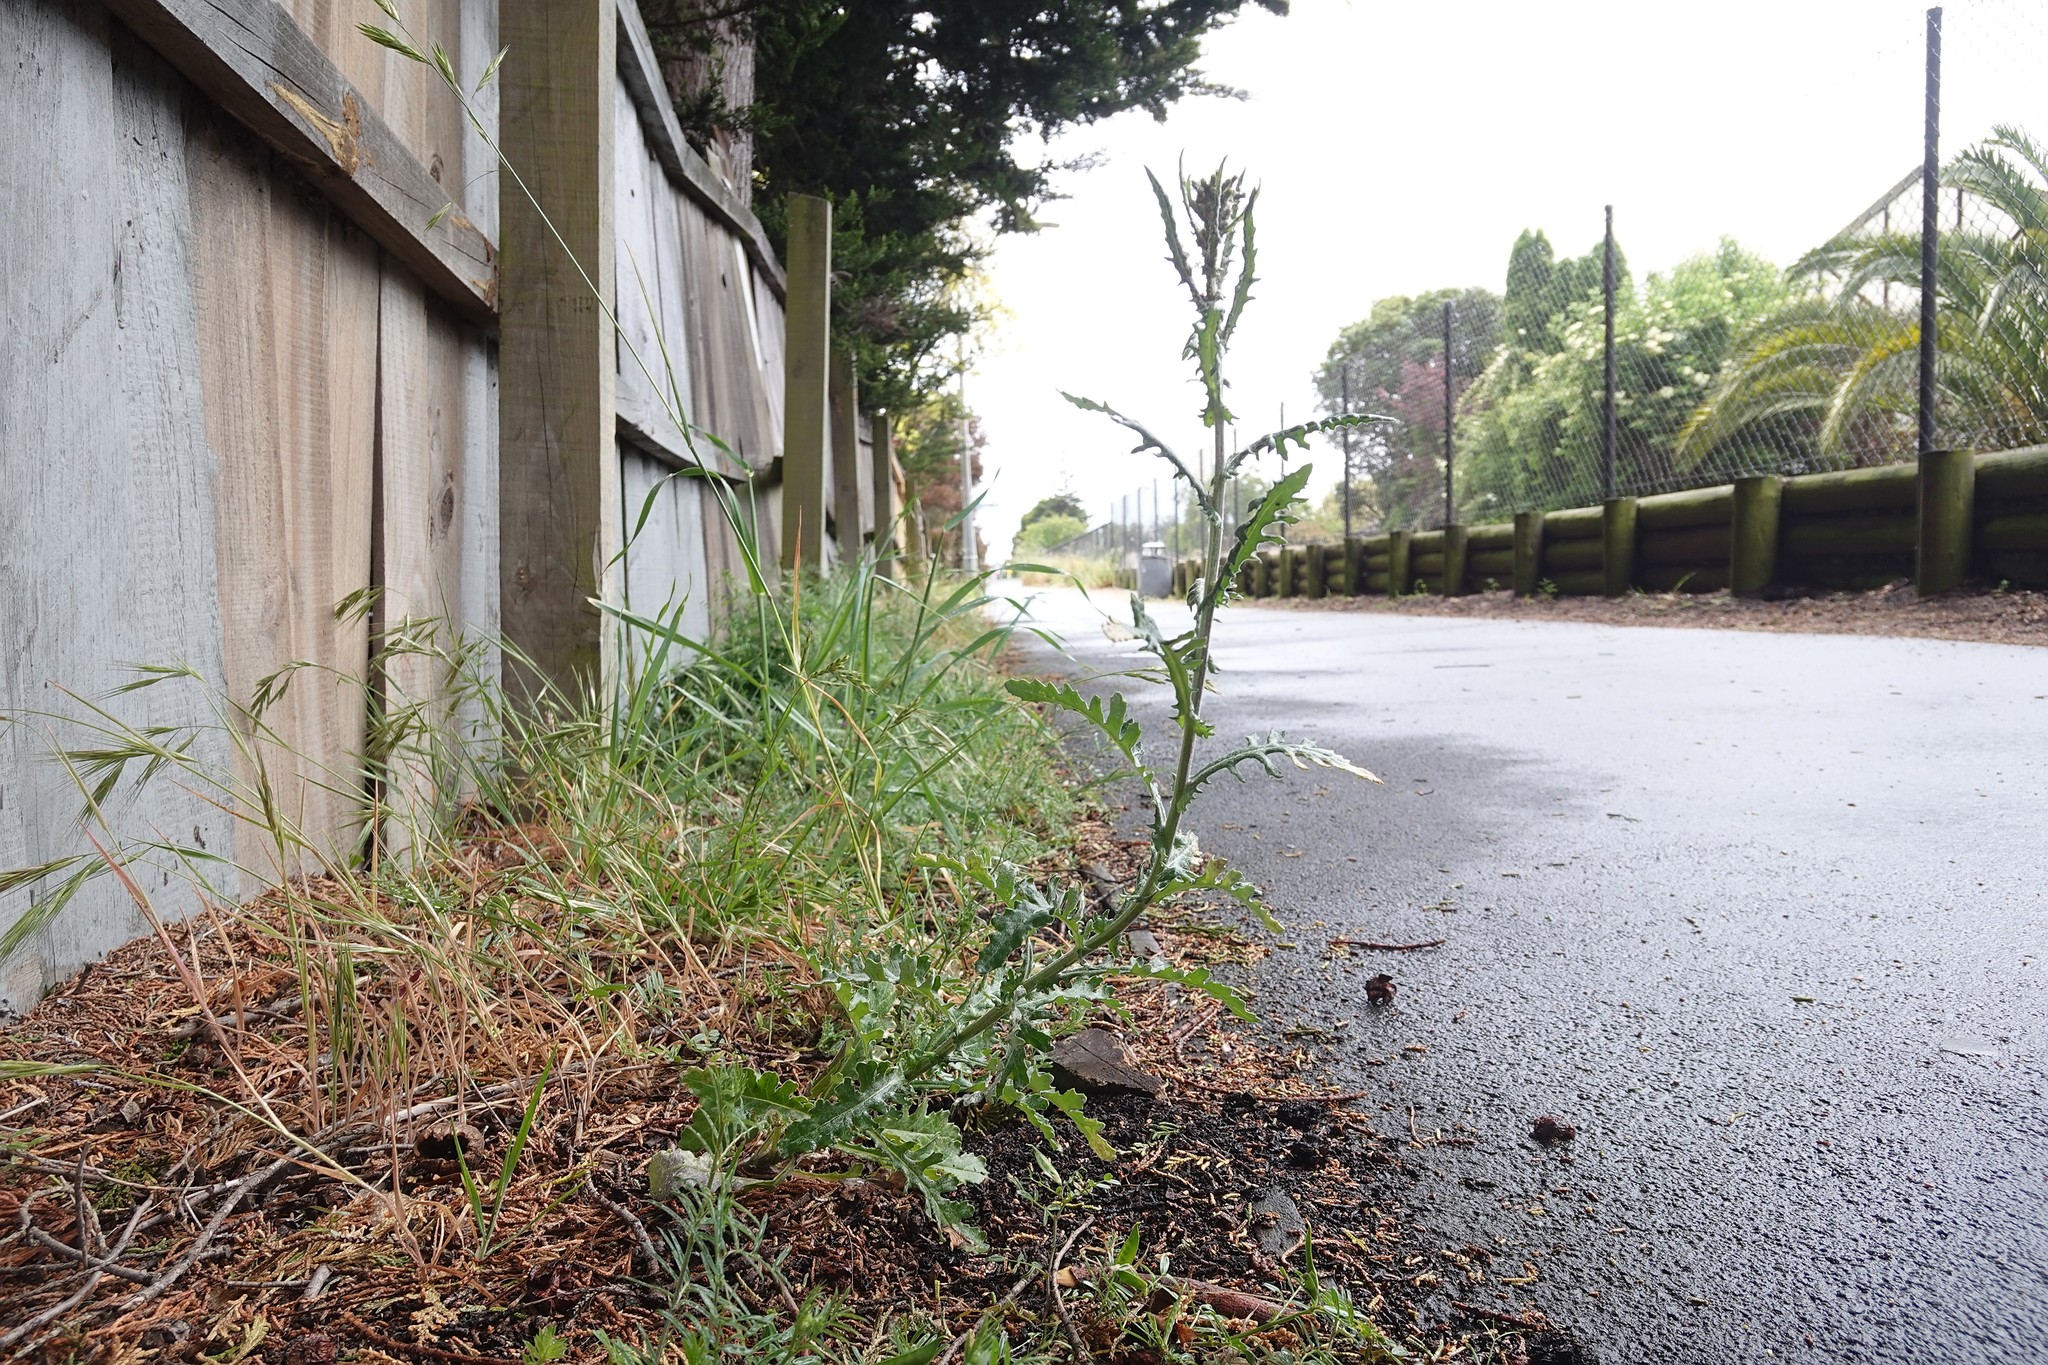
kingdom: Plantae
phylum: Tracheophyta
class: Magnoliopsida
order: Asterales
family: Asteraceae
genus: Senecio
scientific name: Senecio glomeratus
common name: Cutleaf burnweed
